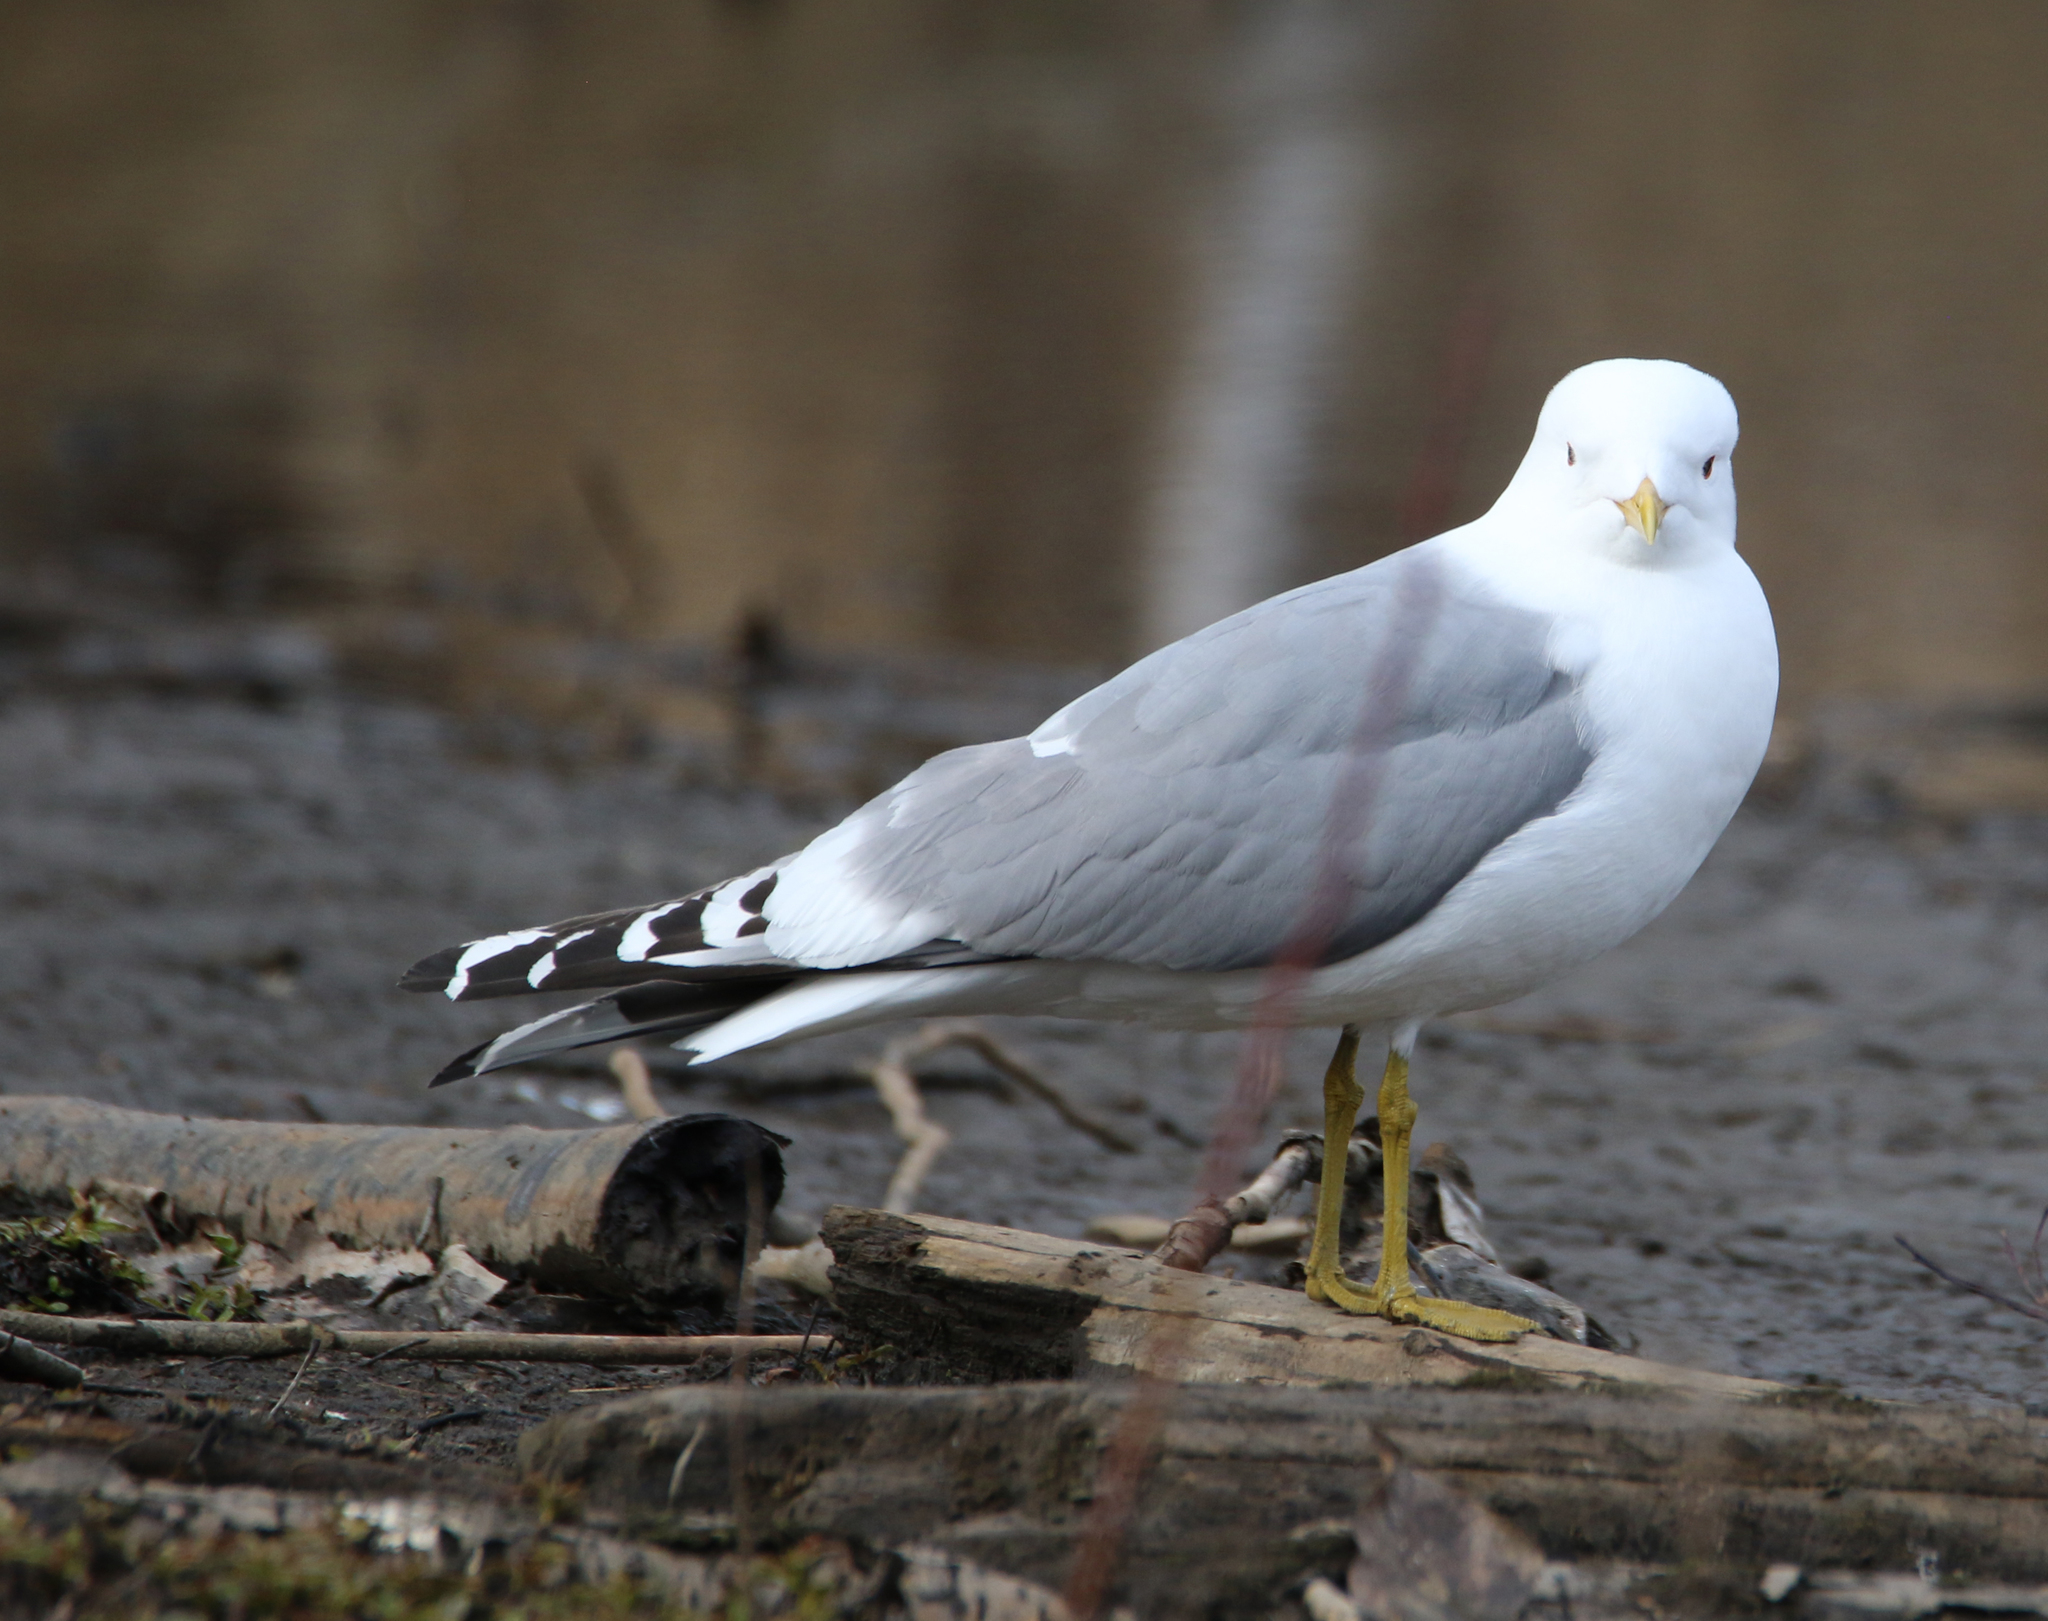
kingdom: Animalia
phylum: Chordata
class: Aves
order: Charadriiformes
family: Laridae
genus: Larus
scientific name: Larus brachyrhynchus
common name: Short-billed gull
